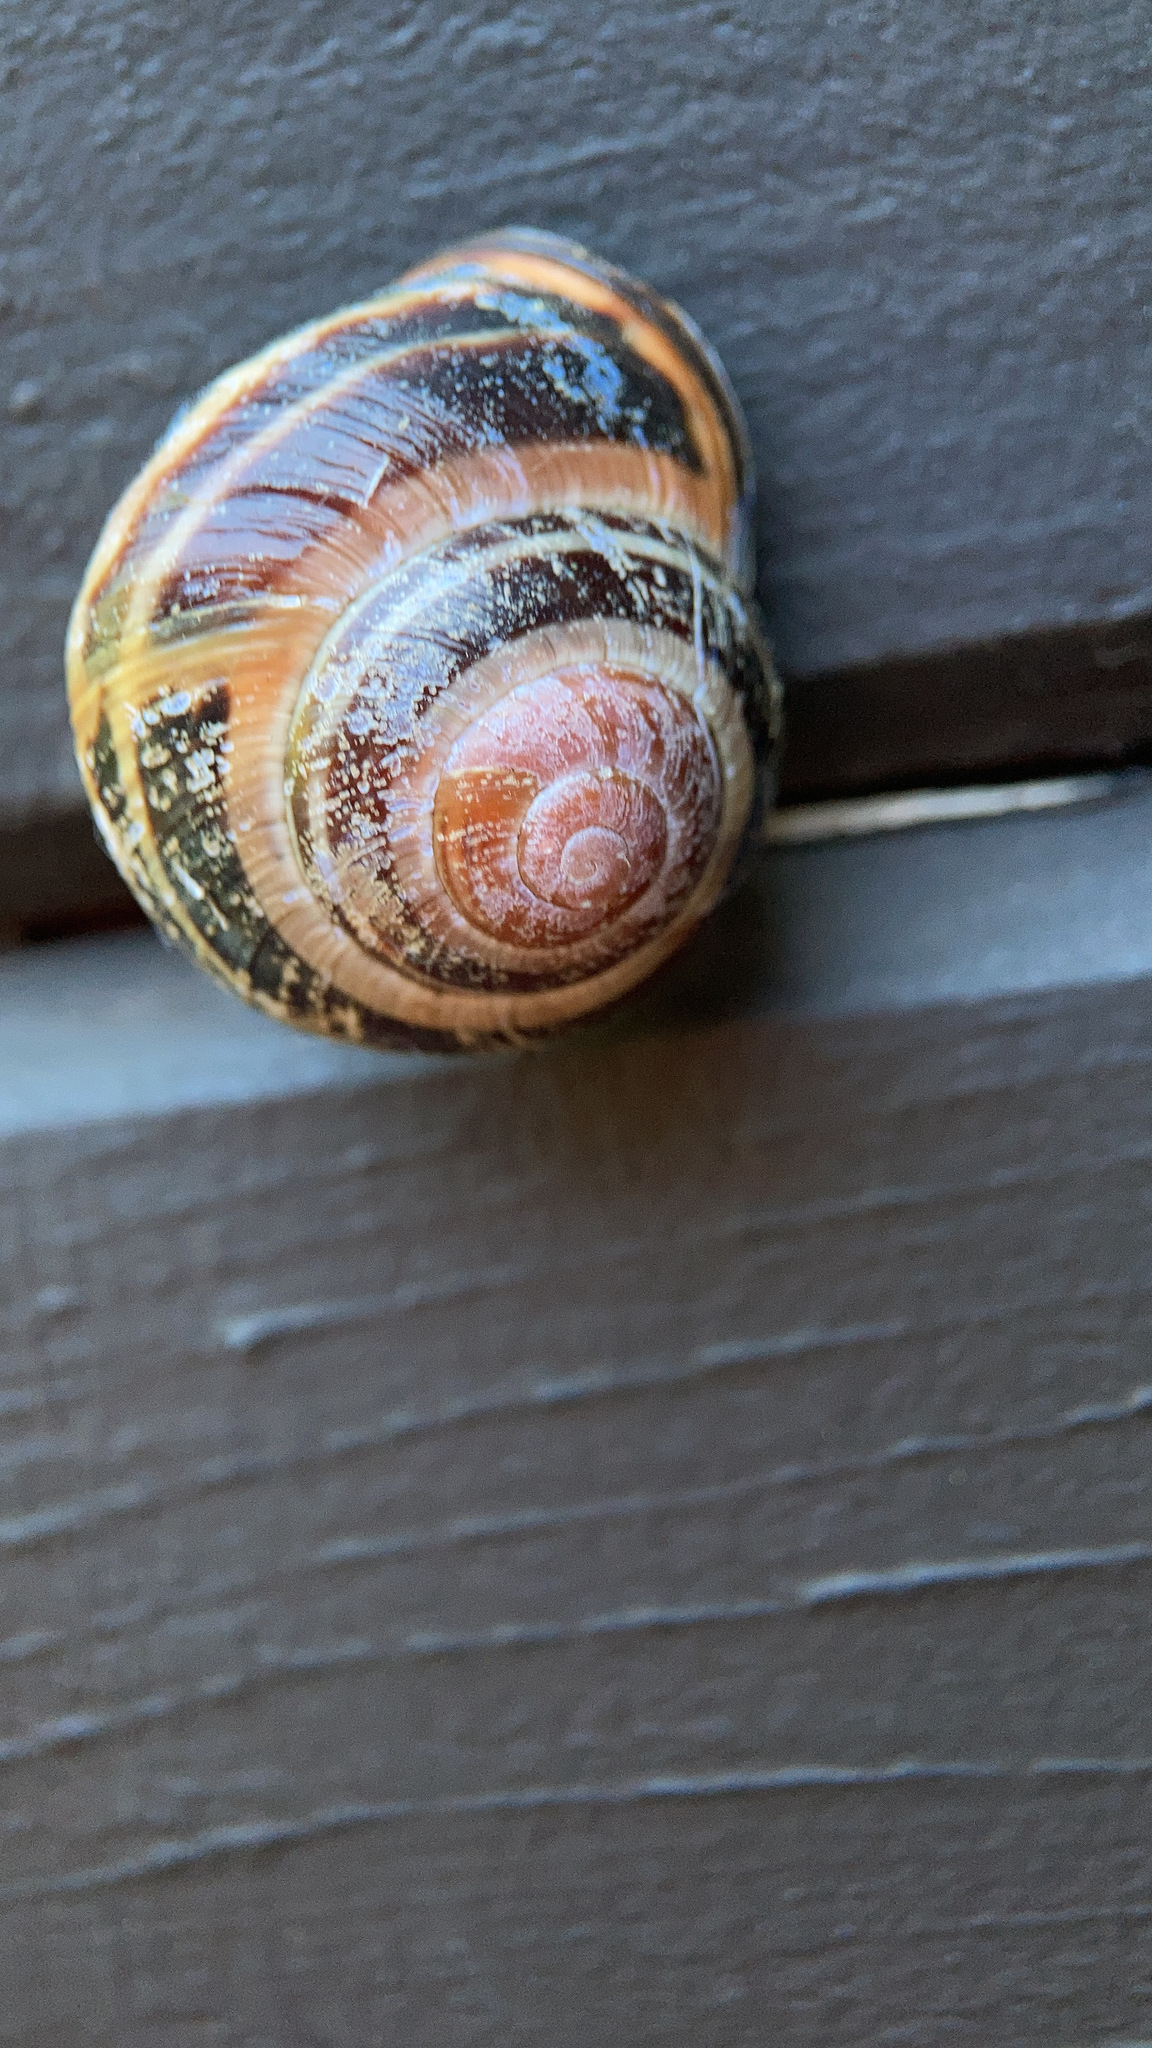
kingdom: Animalia
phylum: Mollusca
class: Gastropoda
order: Stylommatophora
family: Helicidae
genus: Cepaea
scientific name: Cepaea nemoralis
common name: Grovesnail
